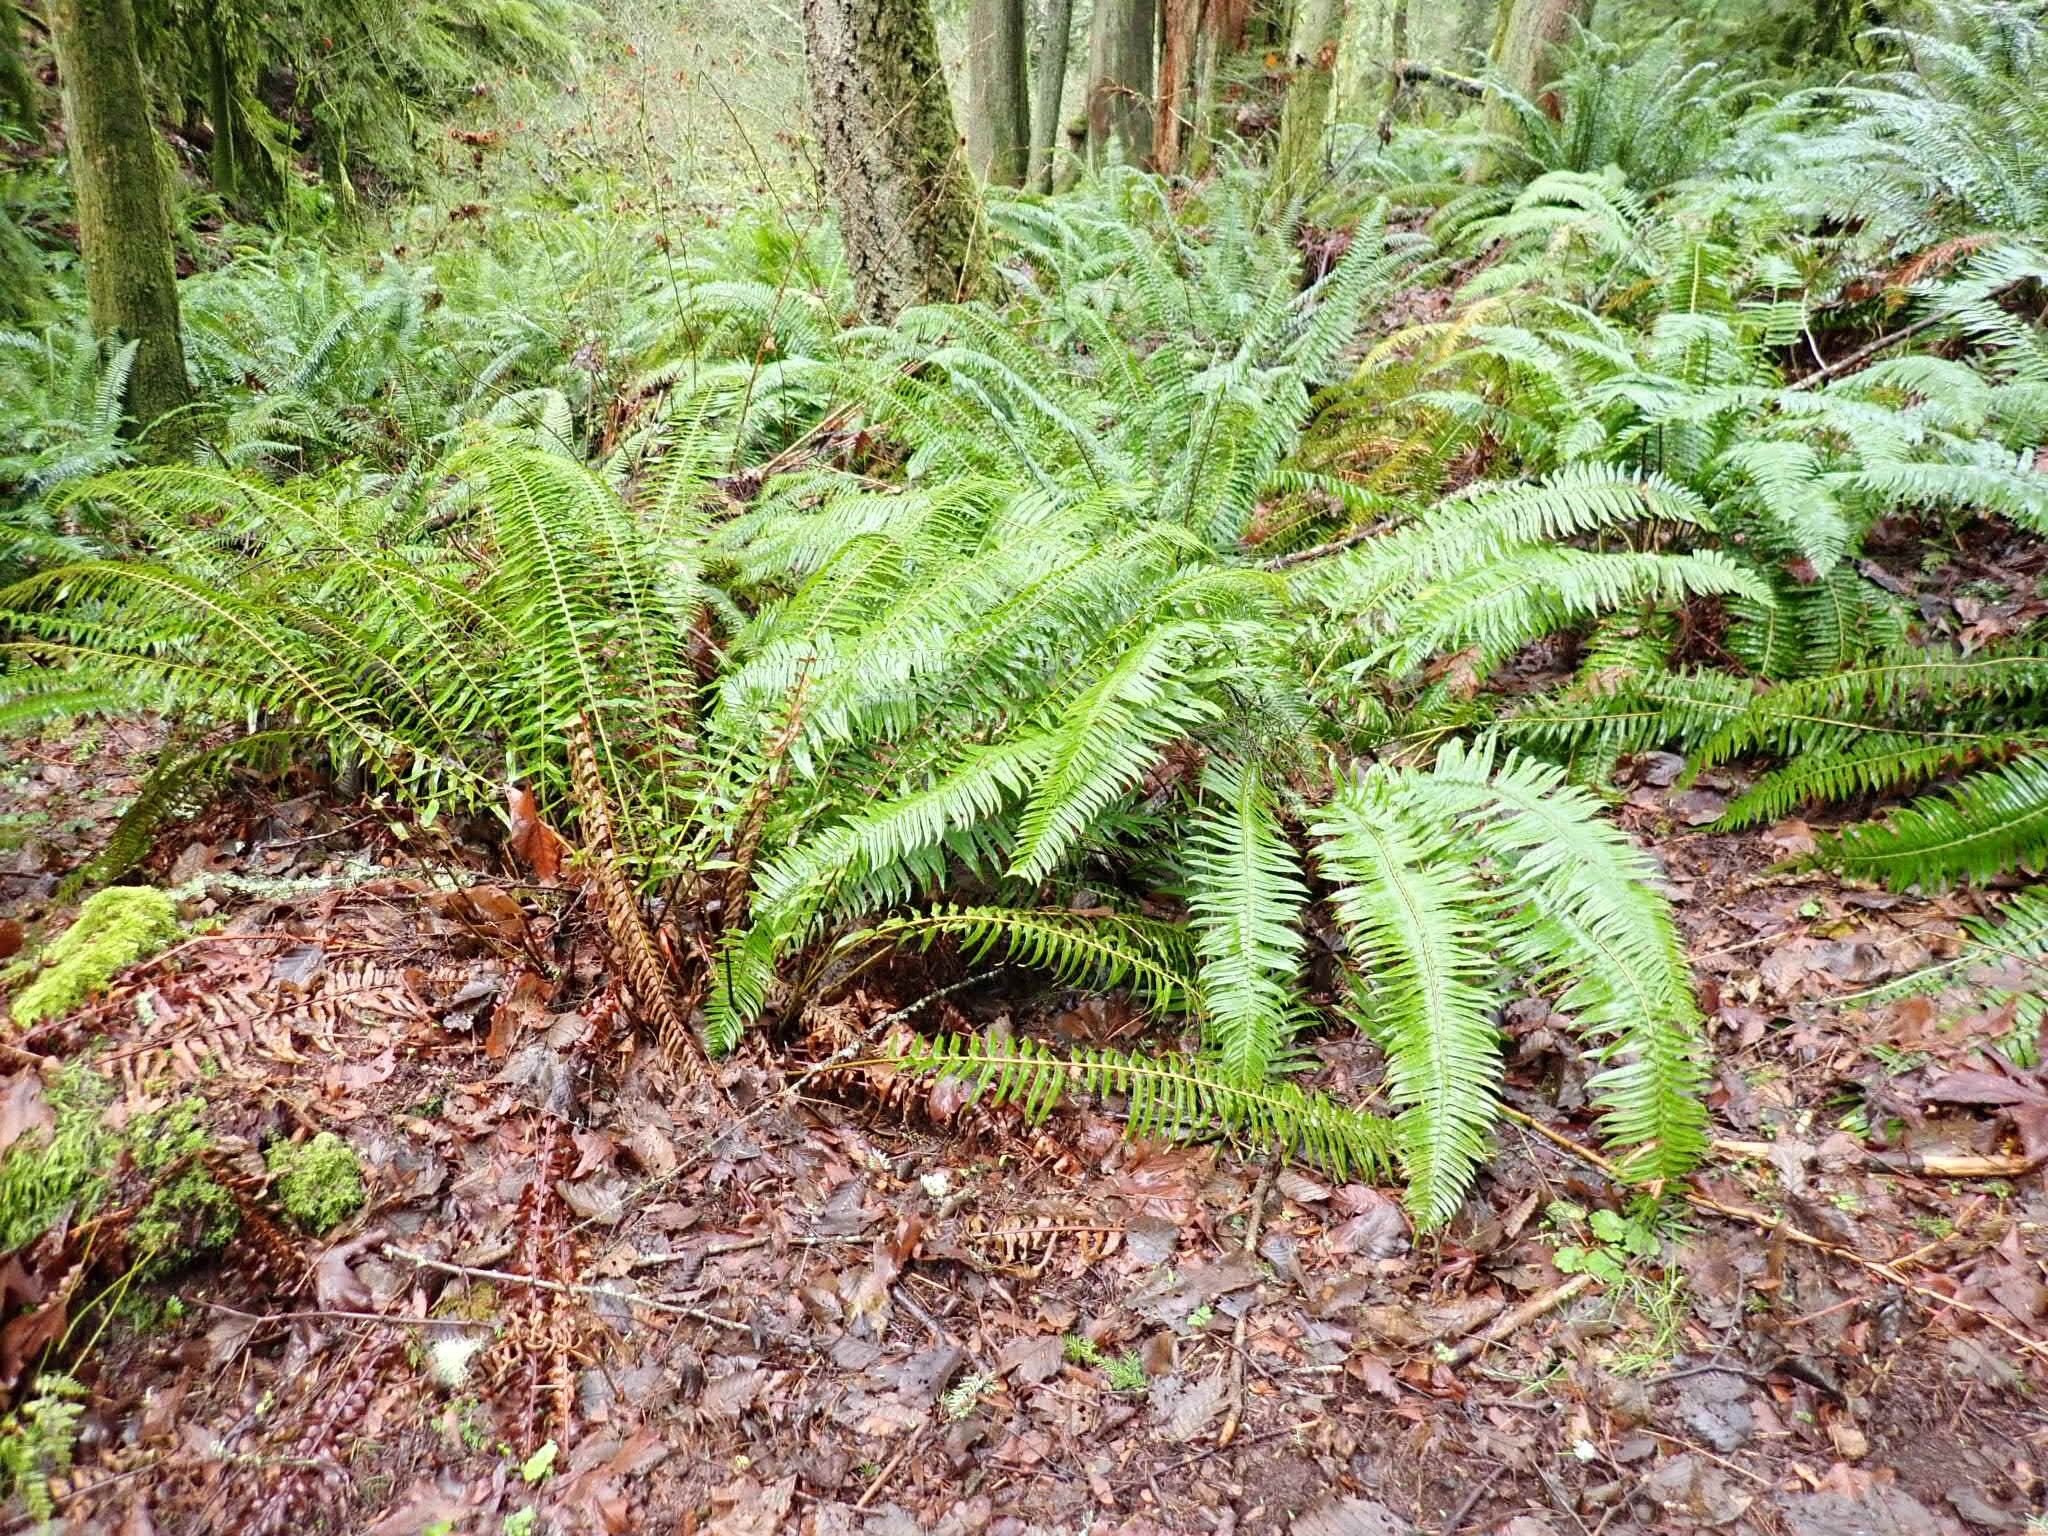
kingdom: Plantae
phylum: Tracheophyta
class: Polypodiopsida
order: Polypodiales
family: Dryopteridaceae
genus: Polystichum
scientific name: Polystichum munitum
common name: Western sword-fern
